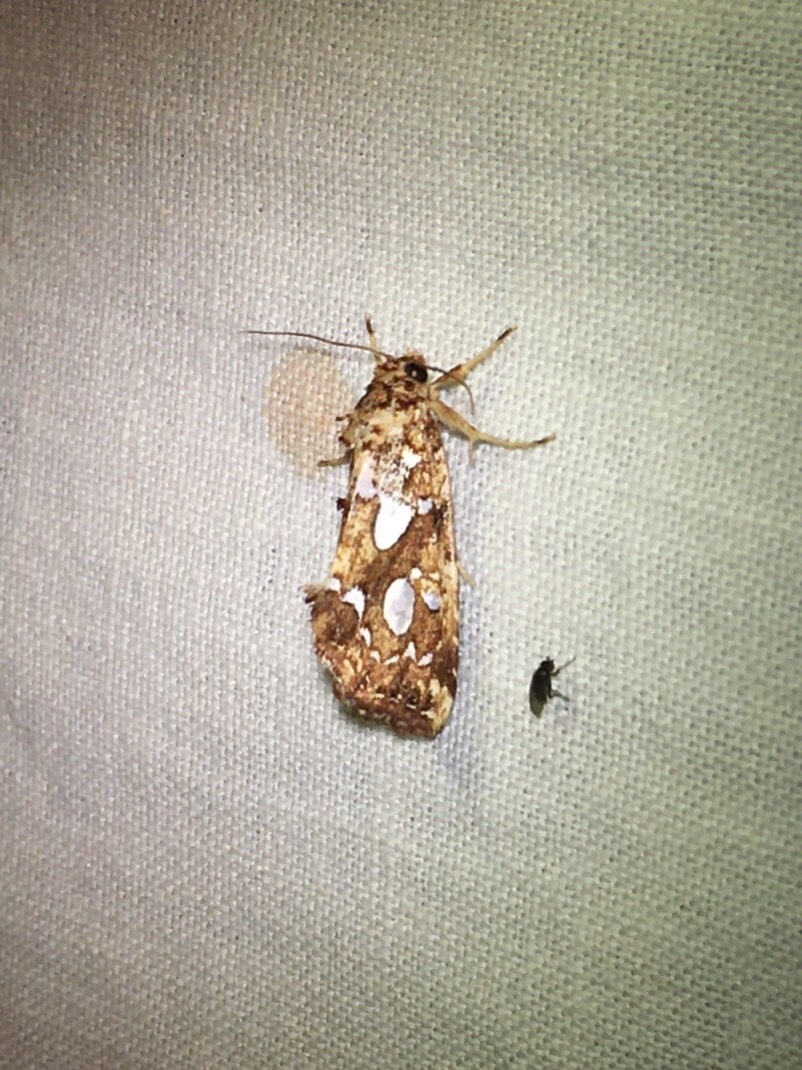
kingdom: Animalia
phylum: Arthropoda
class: Insecta
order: Lepidoptera
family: Noctuidae
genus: Callopistria
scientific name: Callopistria cordata
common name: Silver-spotted fern moth
